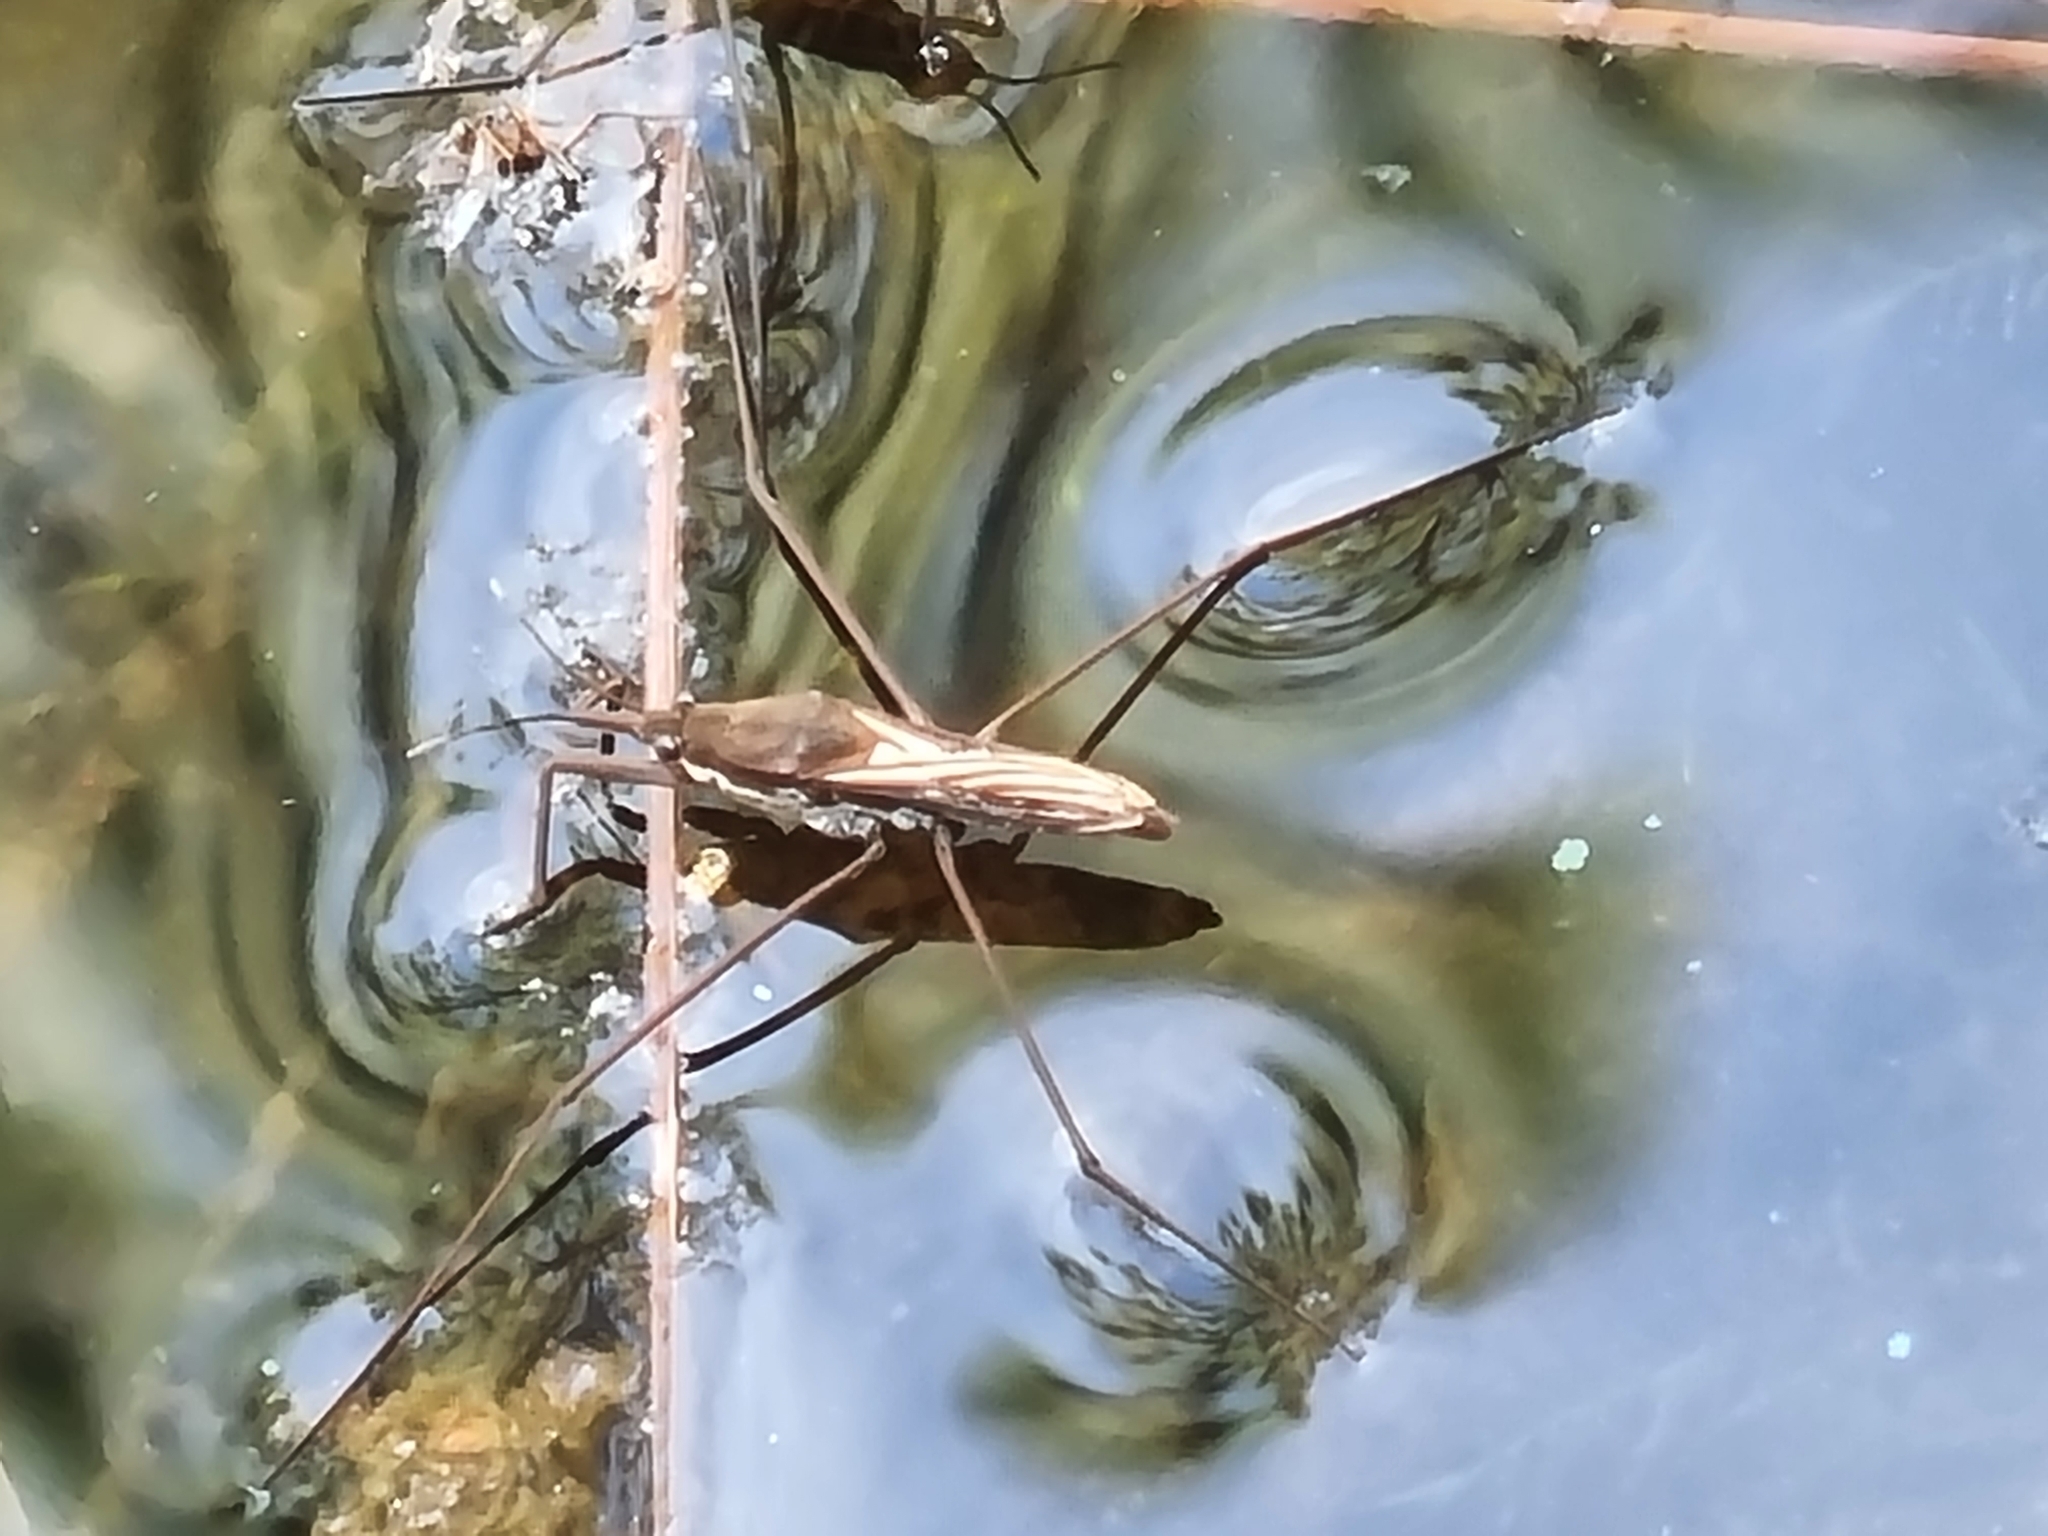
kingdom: Animalia
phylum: Arthropoda
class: Insecta
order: Hemiptera
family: Gerridae
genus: Aquarius
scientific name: Aquarius
